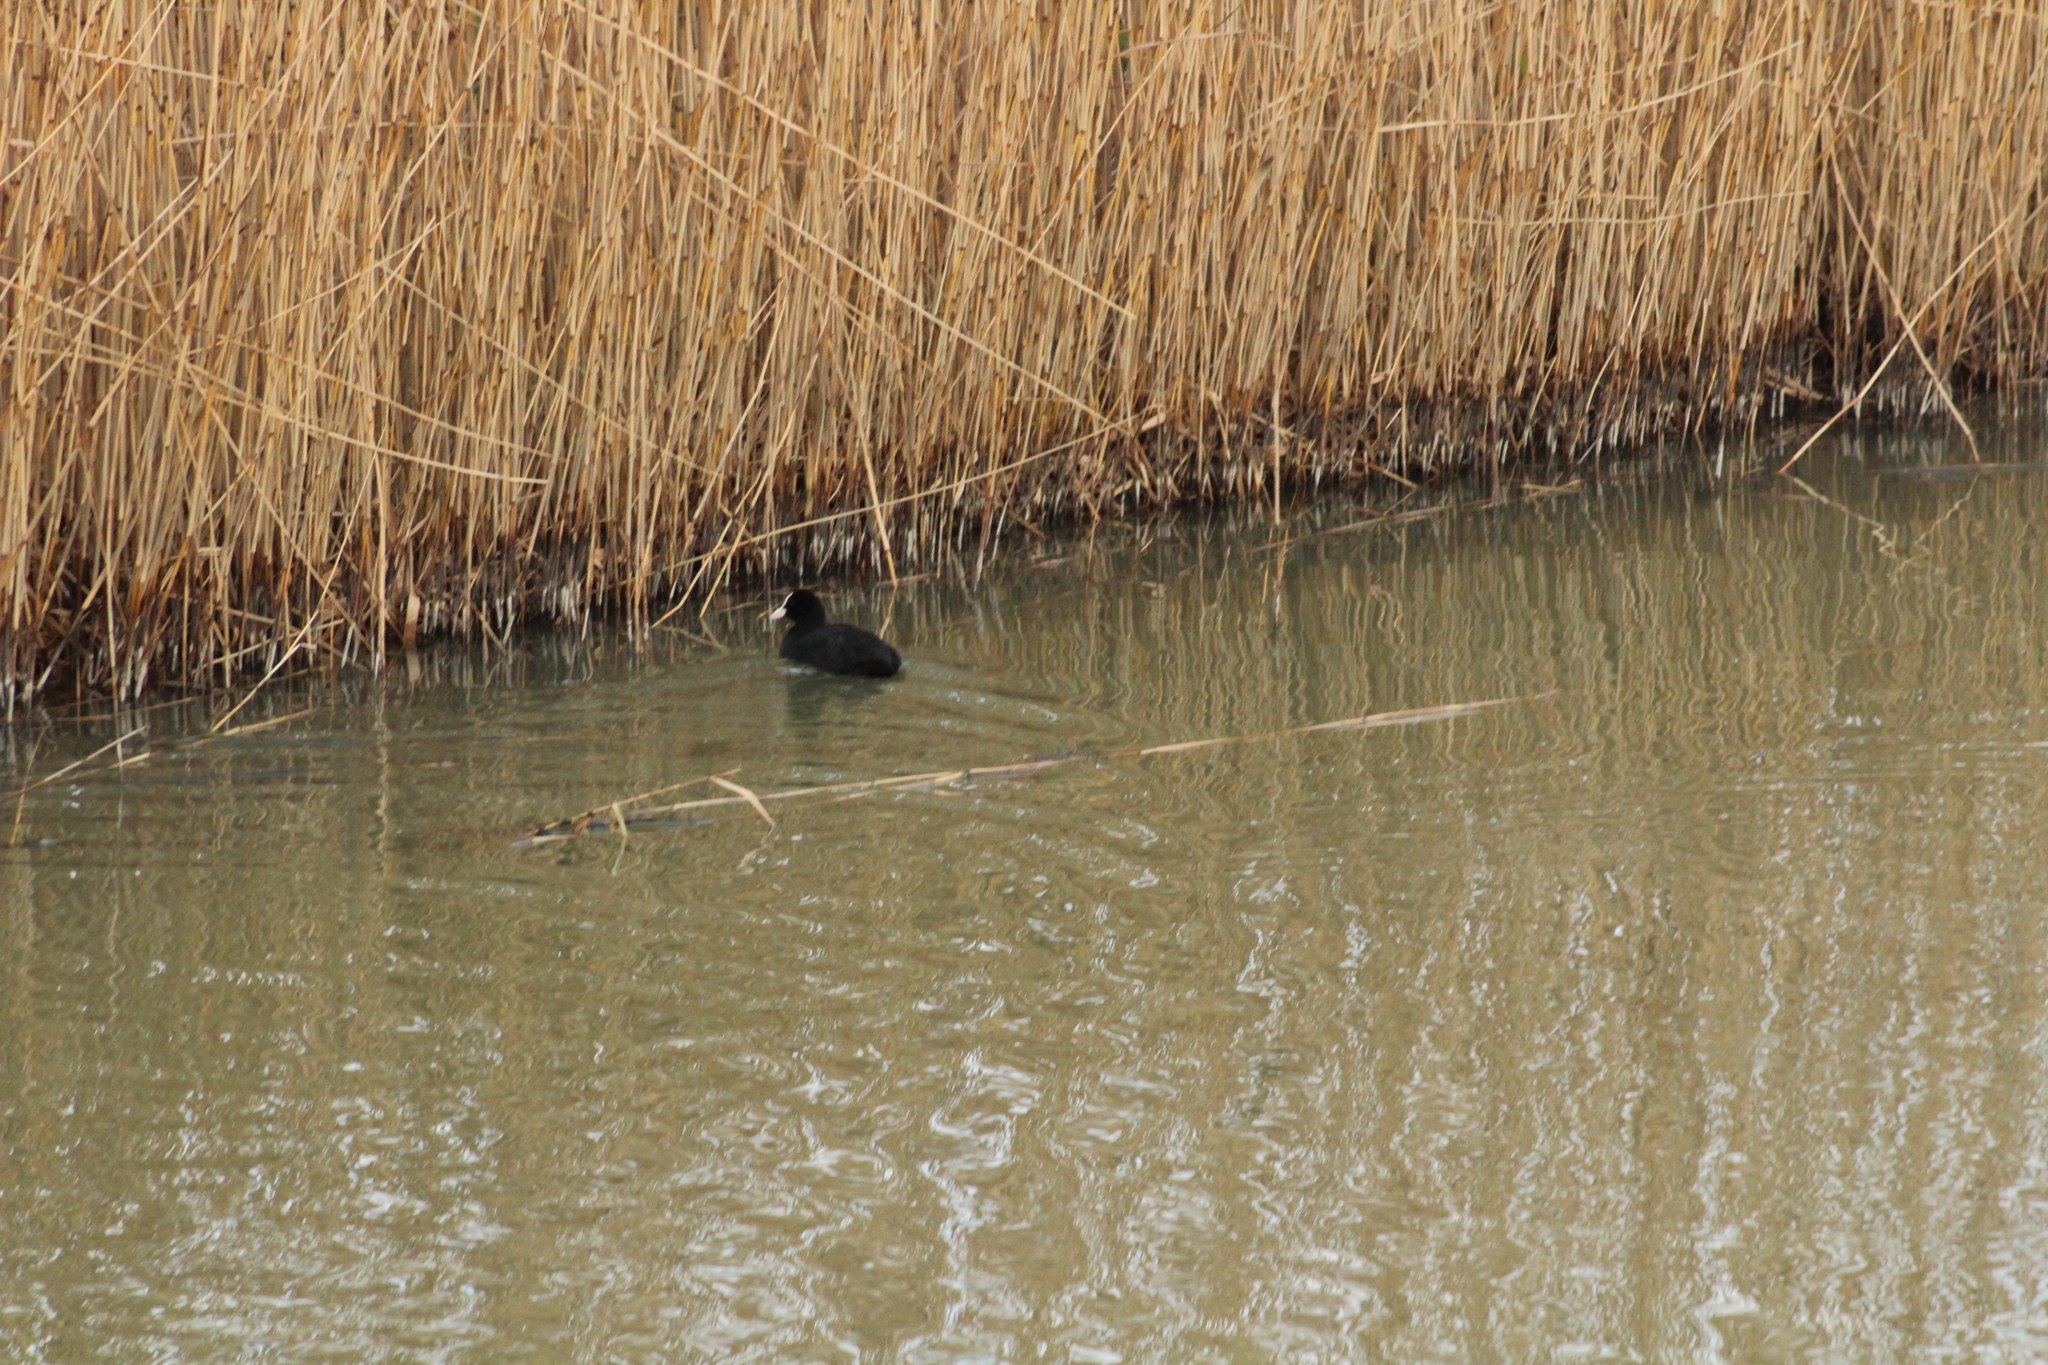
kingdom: Animalia
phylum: Chordata
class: Aves
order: Gruiformes
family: Rallidae
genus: Fulica
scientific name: Fulica atra
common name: Eurasian coot
